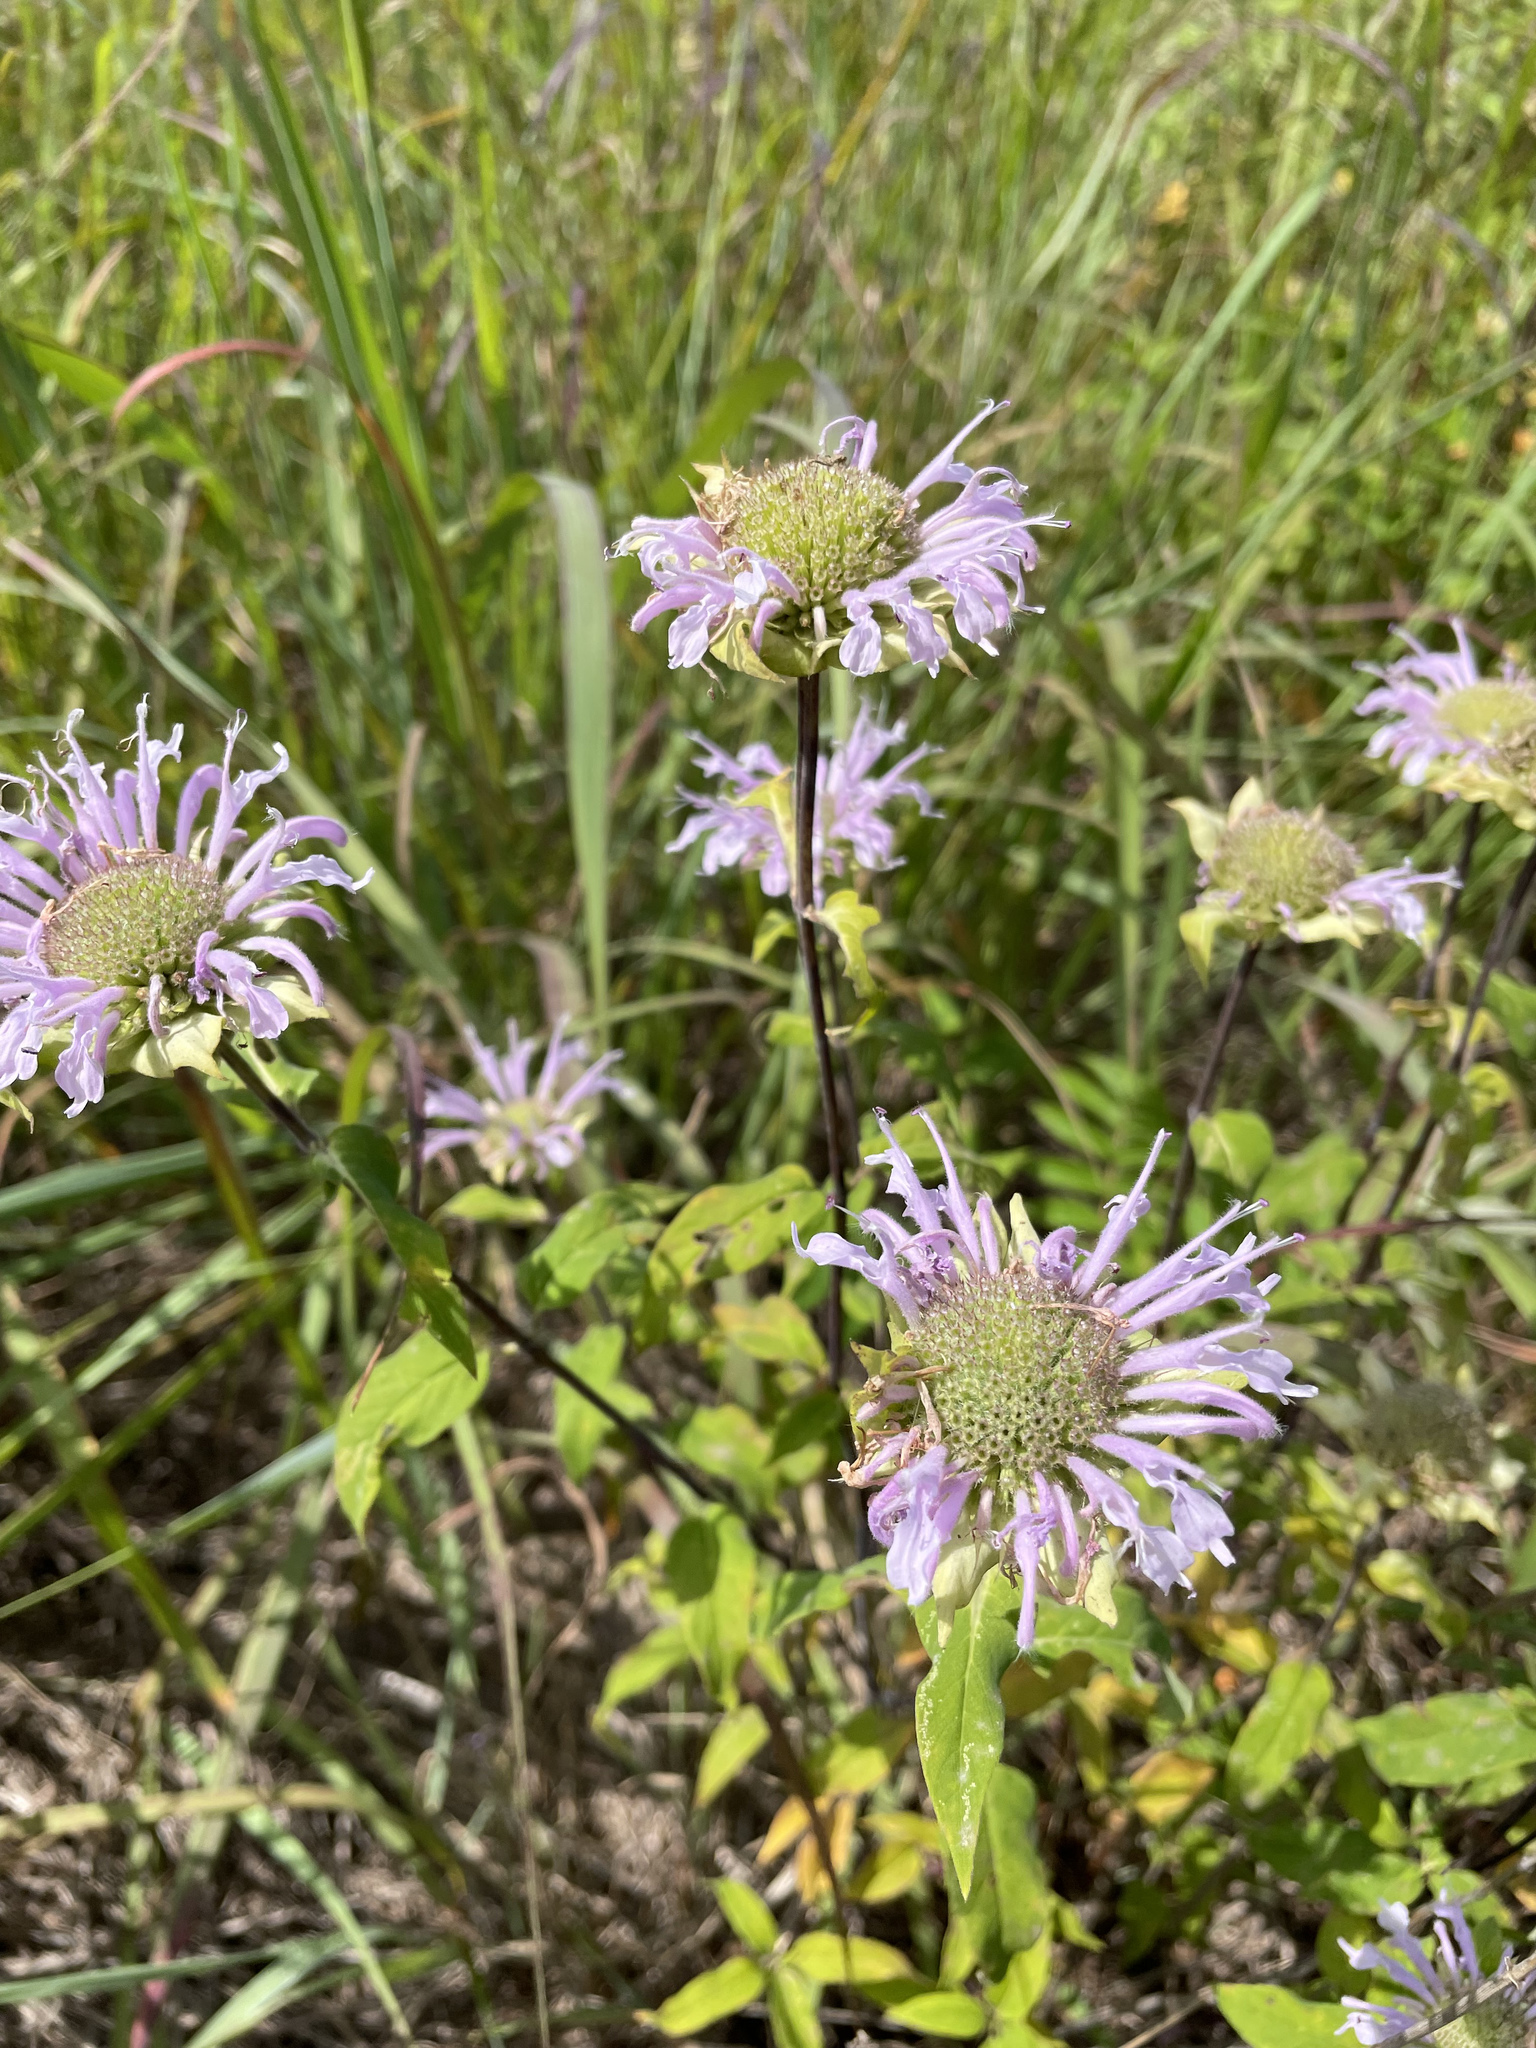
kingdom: Plantae
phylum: Tracheophyta
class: Magnoliopsida
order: Lamiales
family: Lamiaceae
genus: Monarda
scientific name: Monarda fistulosa
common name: Purple beebalm
